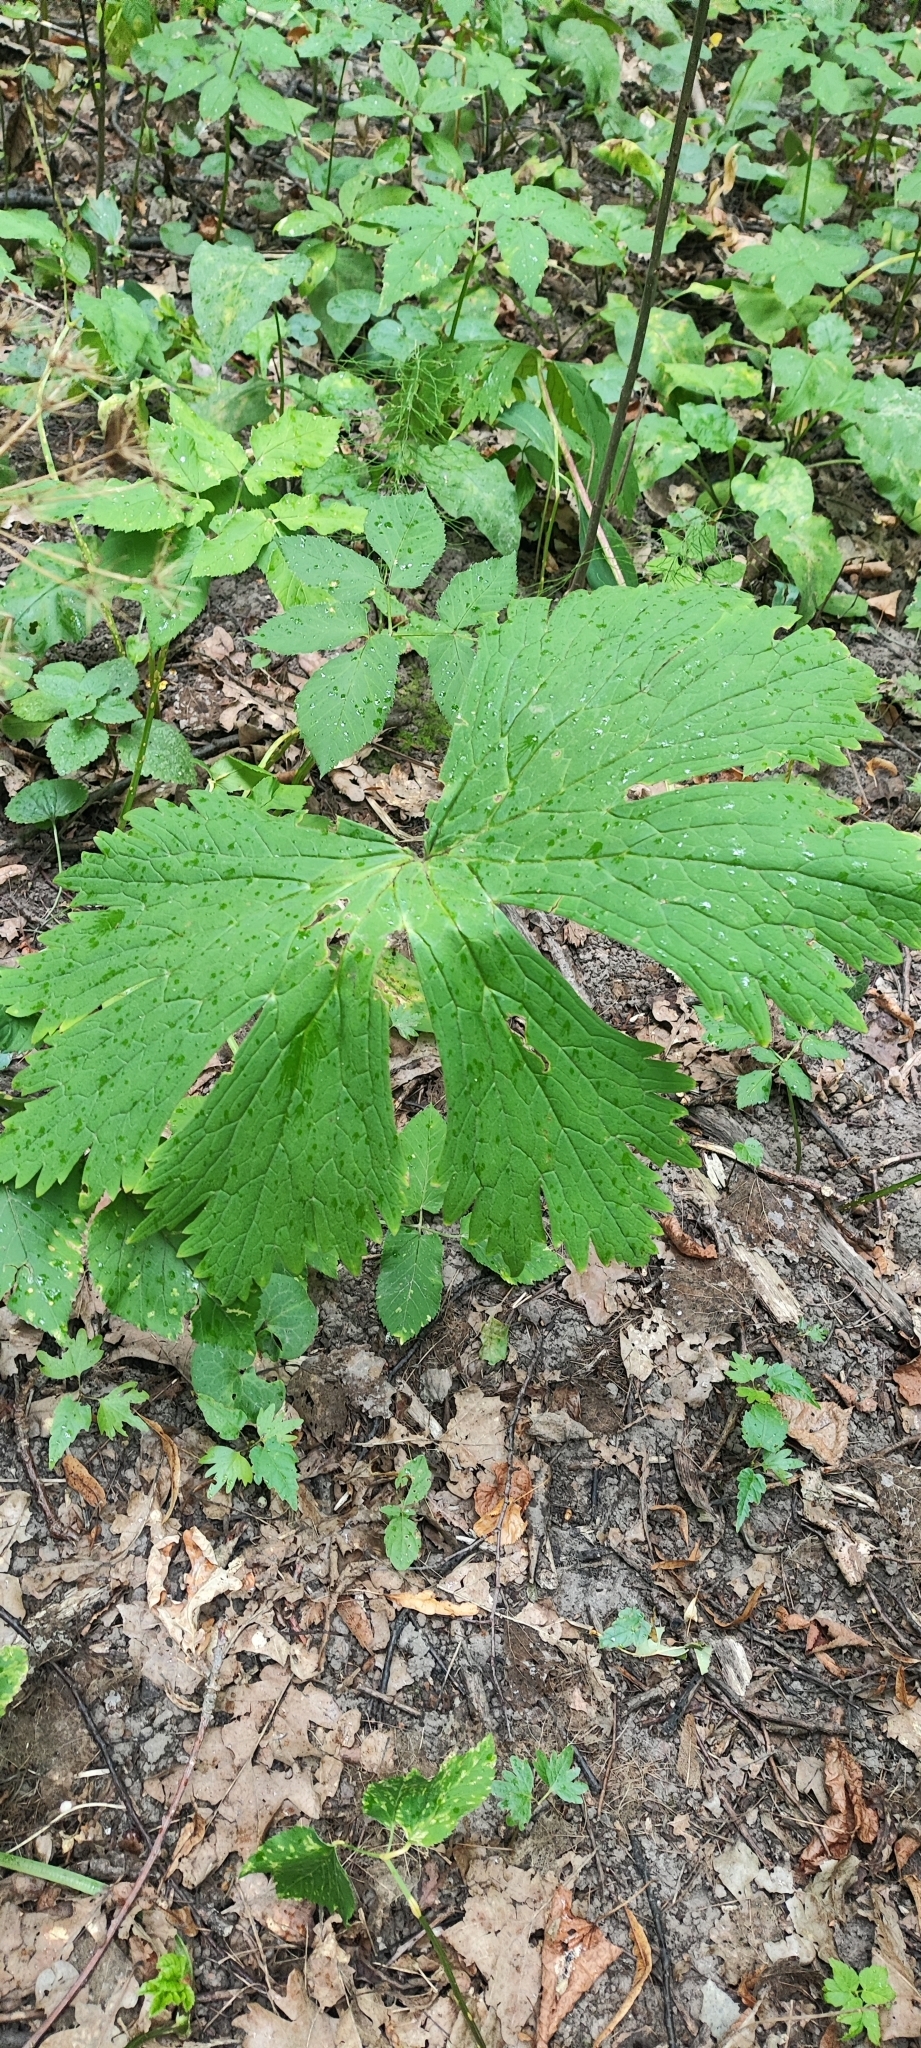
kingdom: Plantae
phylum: Tracheophyta
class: Magnoliopsida
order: Ranunculales
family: Ranunculaceae
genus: Aconitum
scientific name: Aconitum septentrionale
